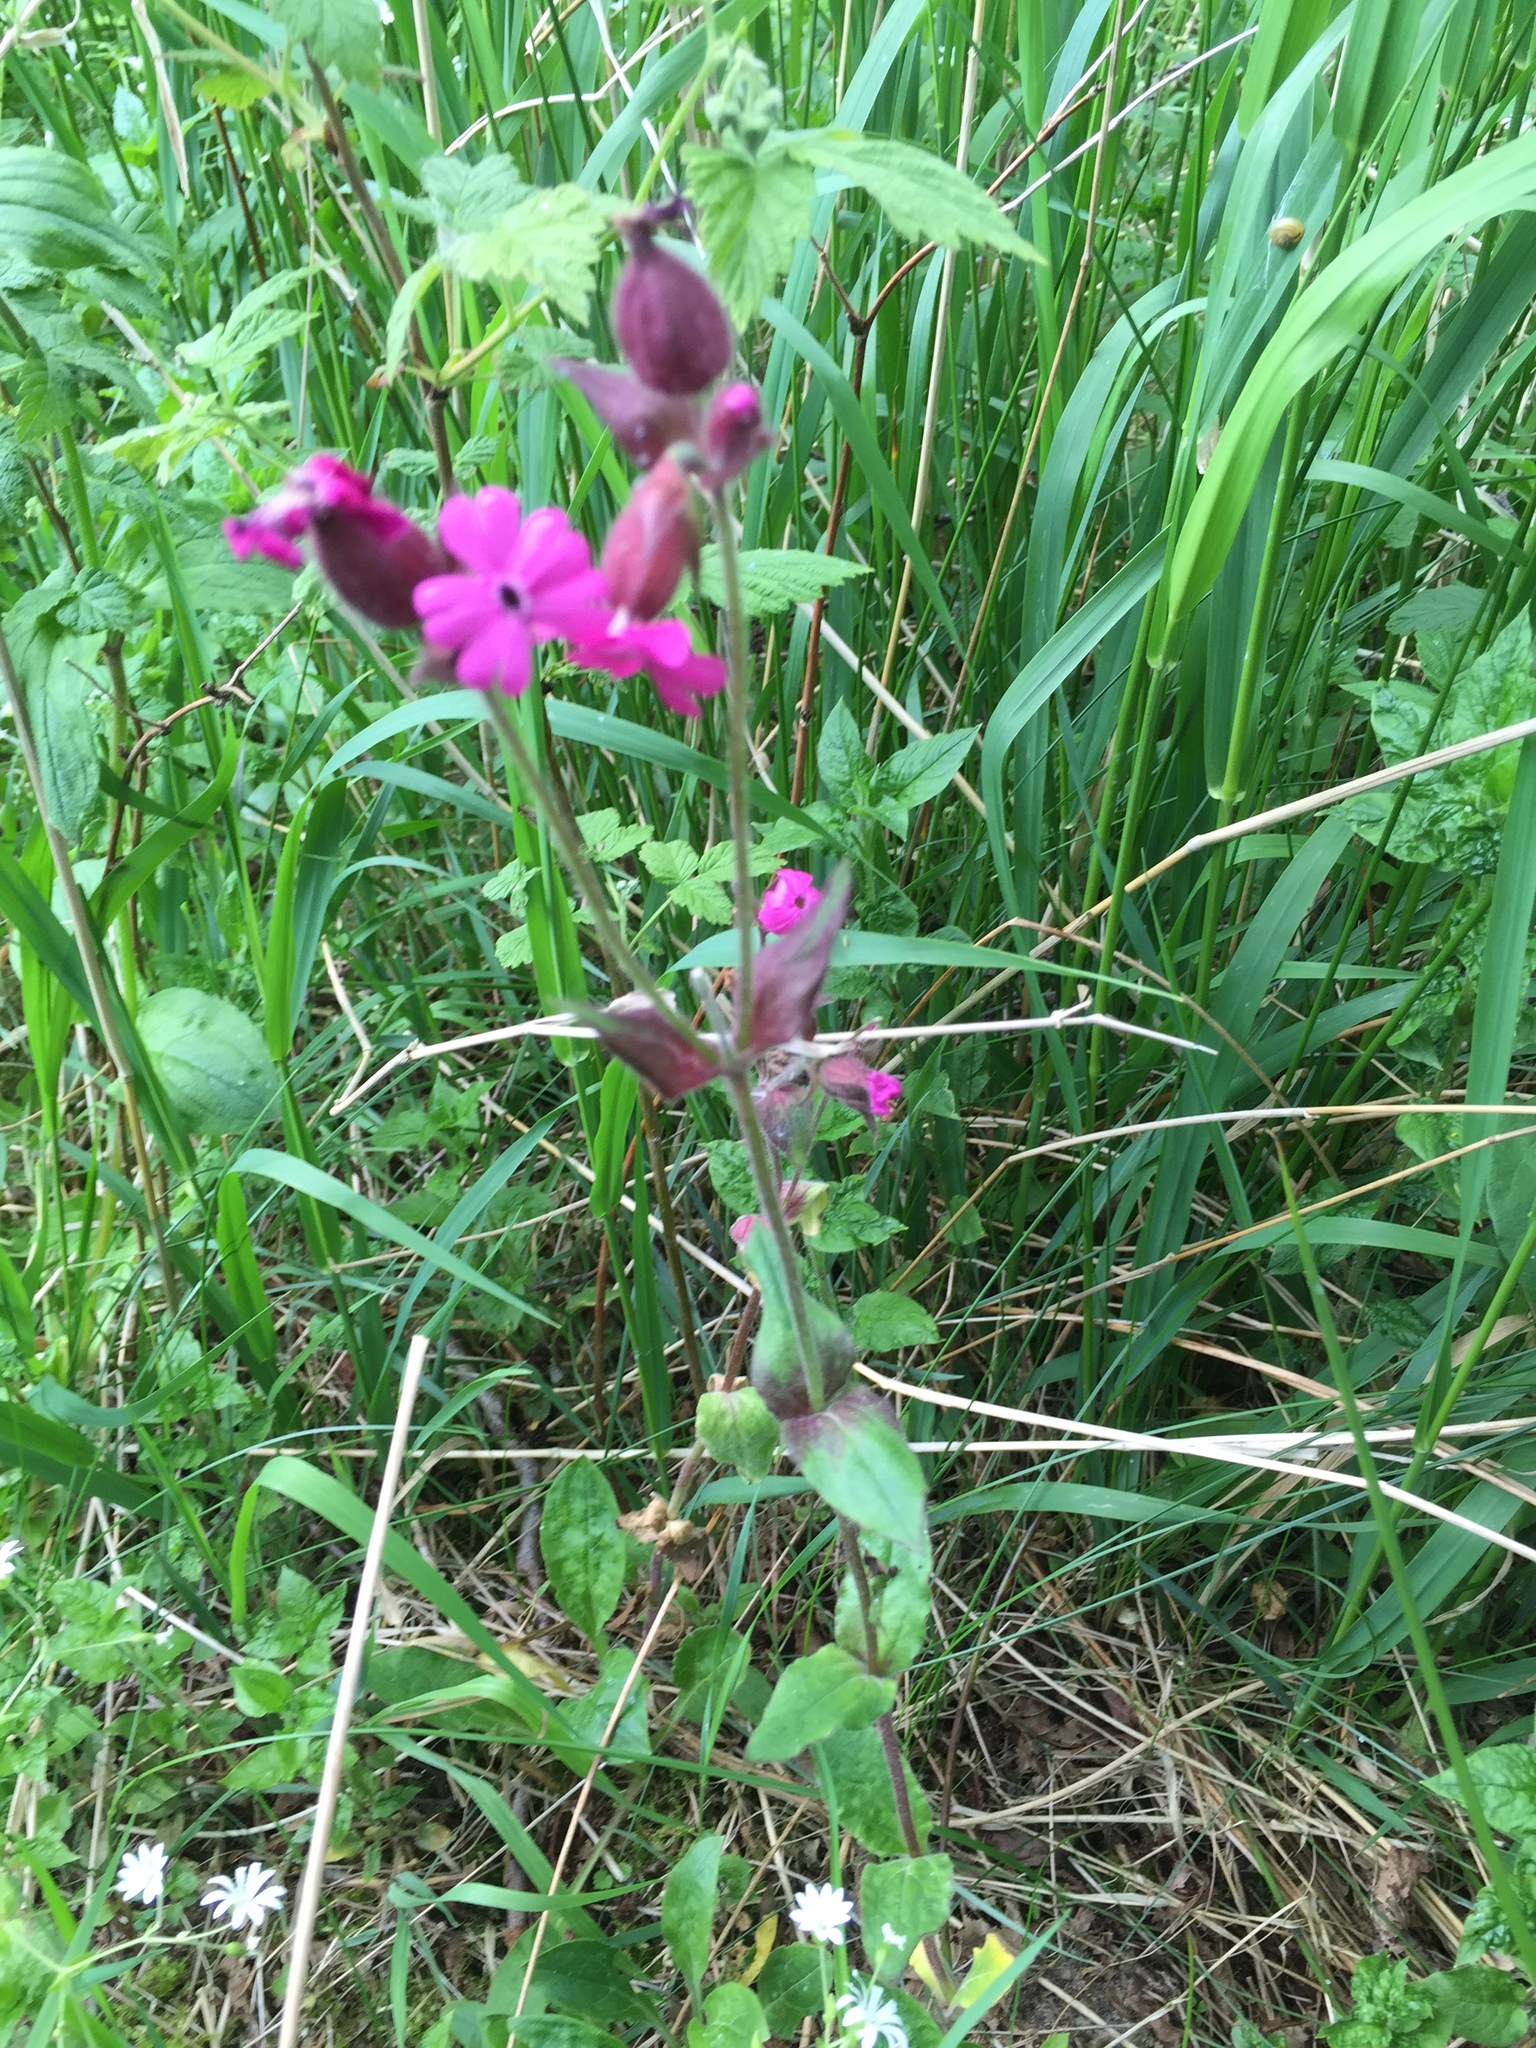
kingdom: Plantae
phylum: Tracheophyta
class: Magnoliopsida
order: Caryophyllales
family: Caryophyllaceae
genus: Silene
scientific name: Silene dioica
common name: Red campion
